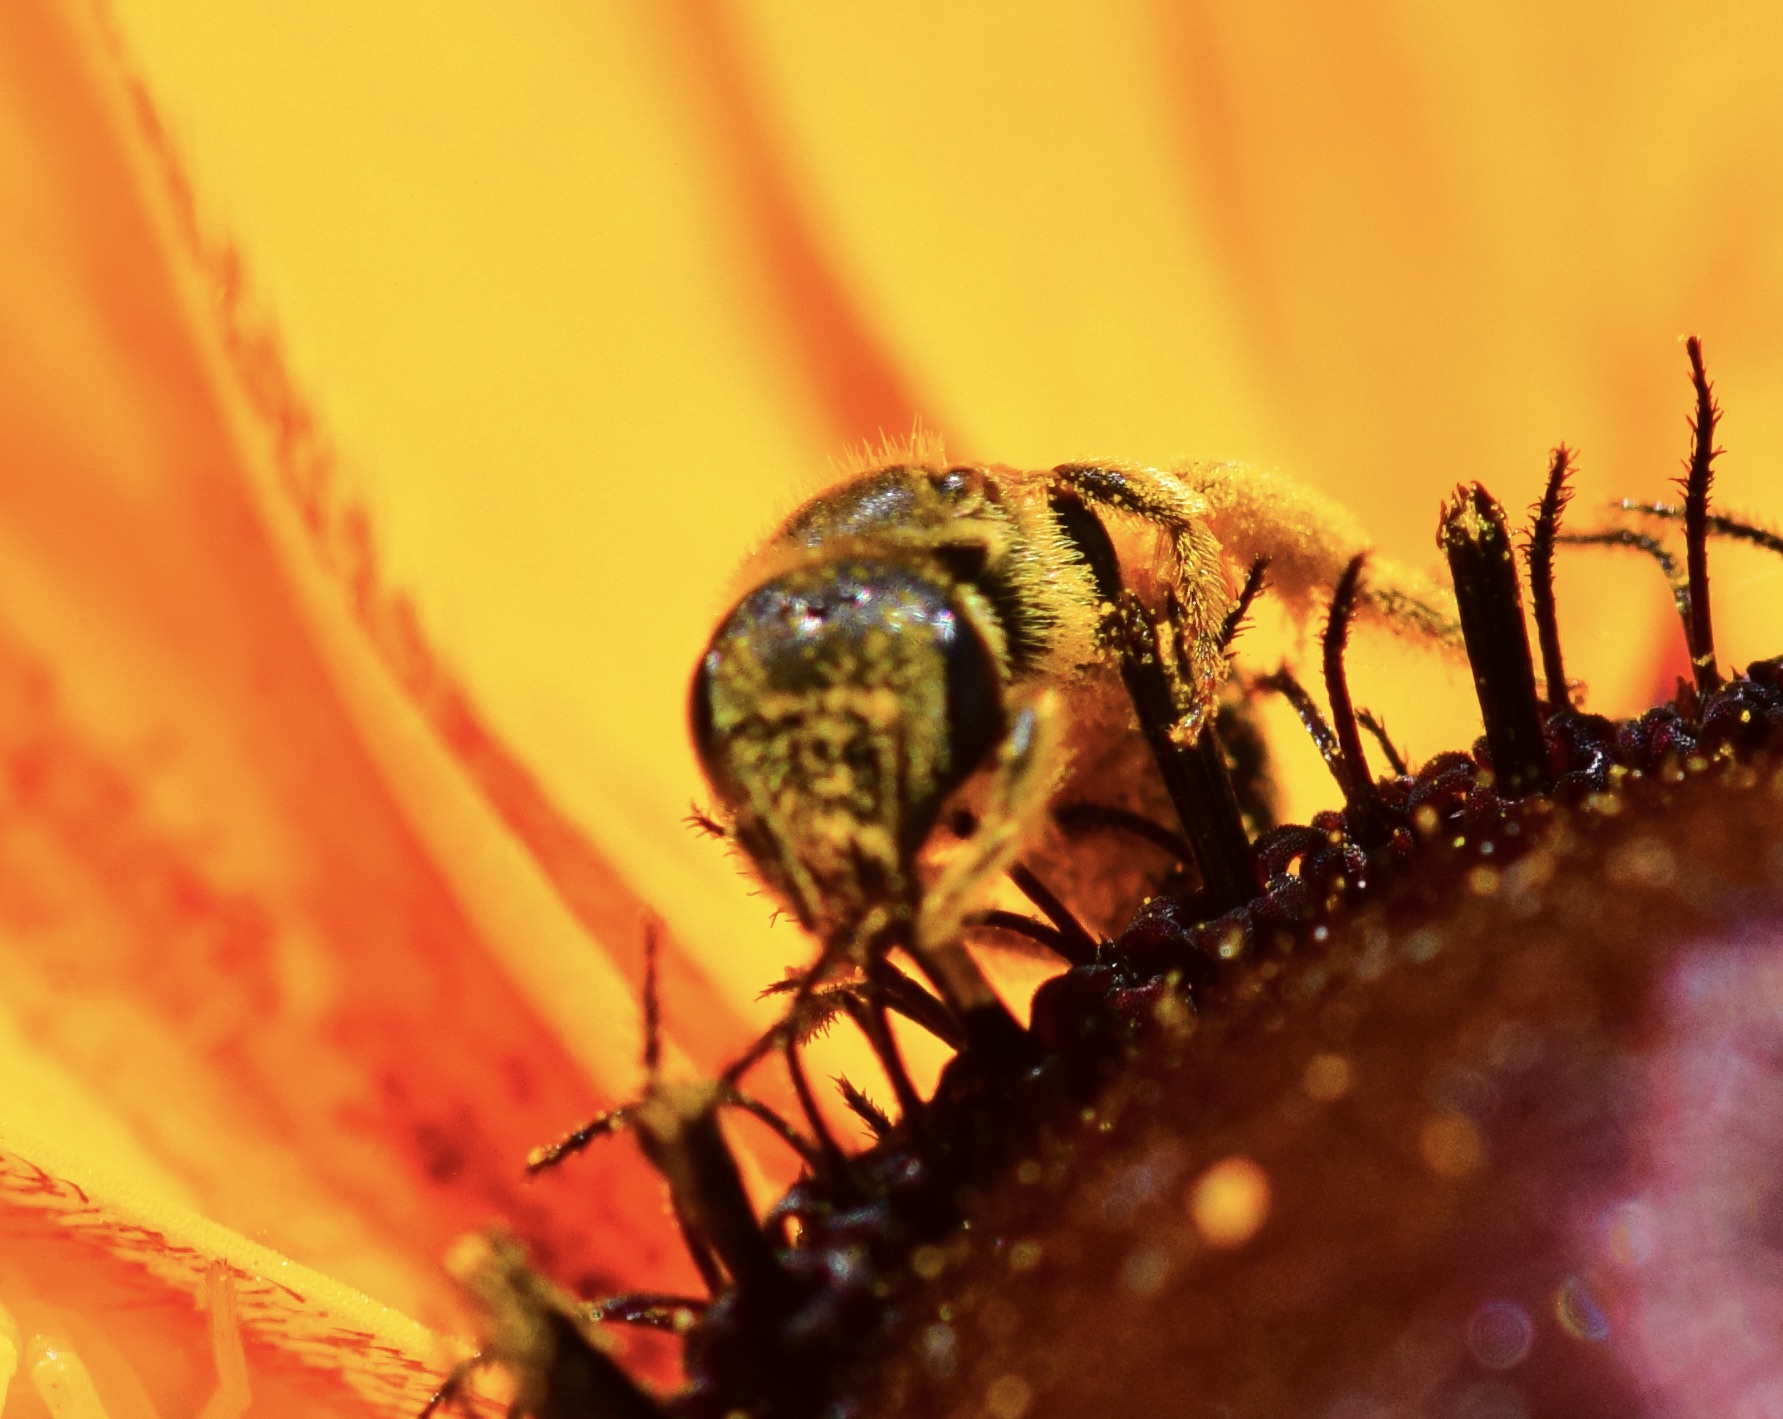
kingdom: Animalia
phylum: Arthropoda
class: Insecta
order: Hymenoptera
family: Halictidae
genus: Halictus
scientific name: Halictus ligatus
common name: Ligated furrow bee
